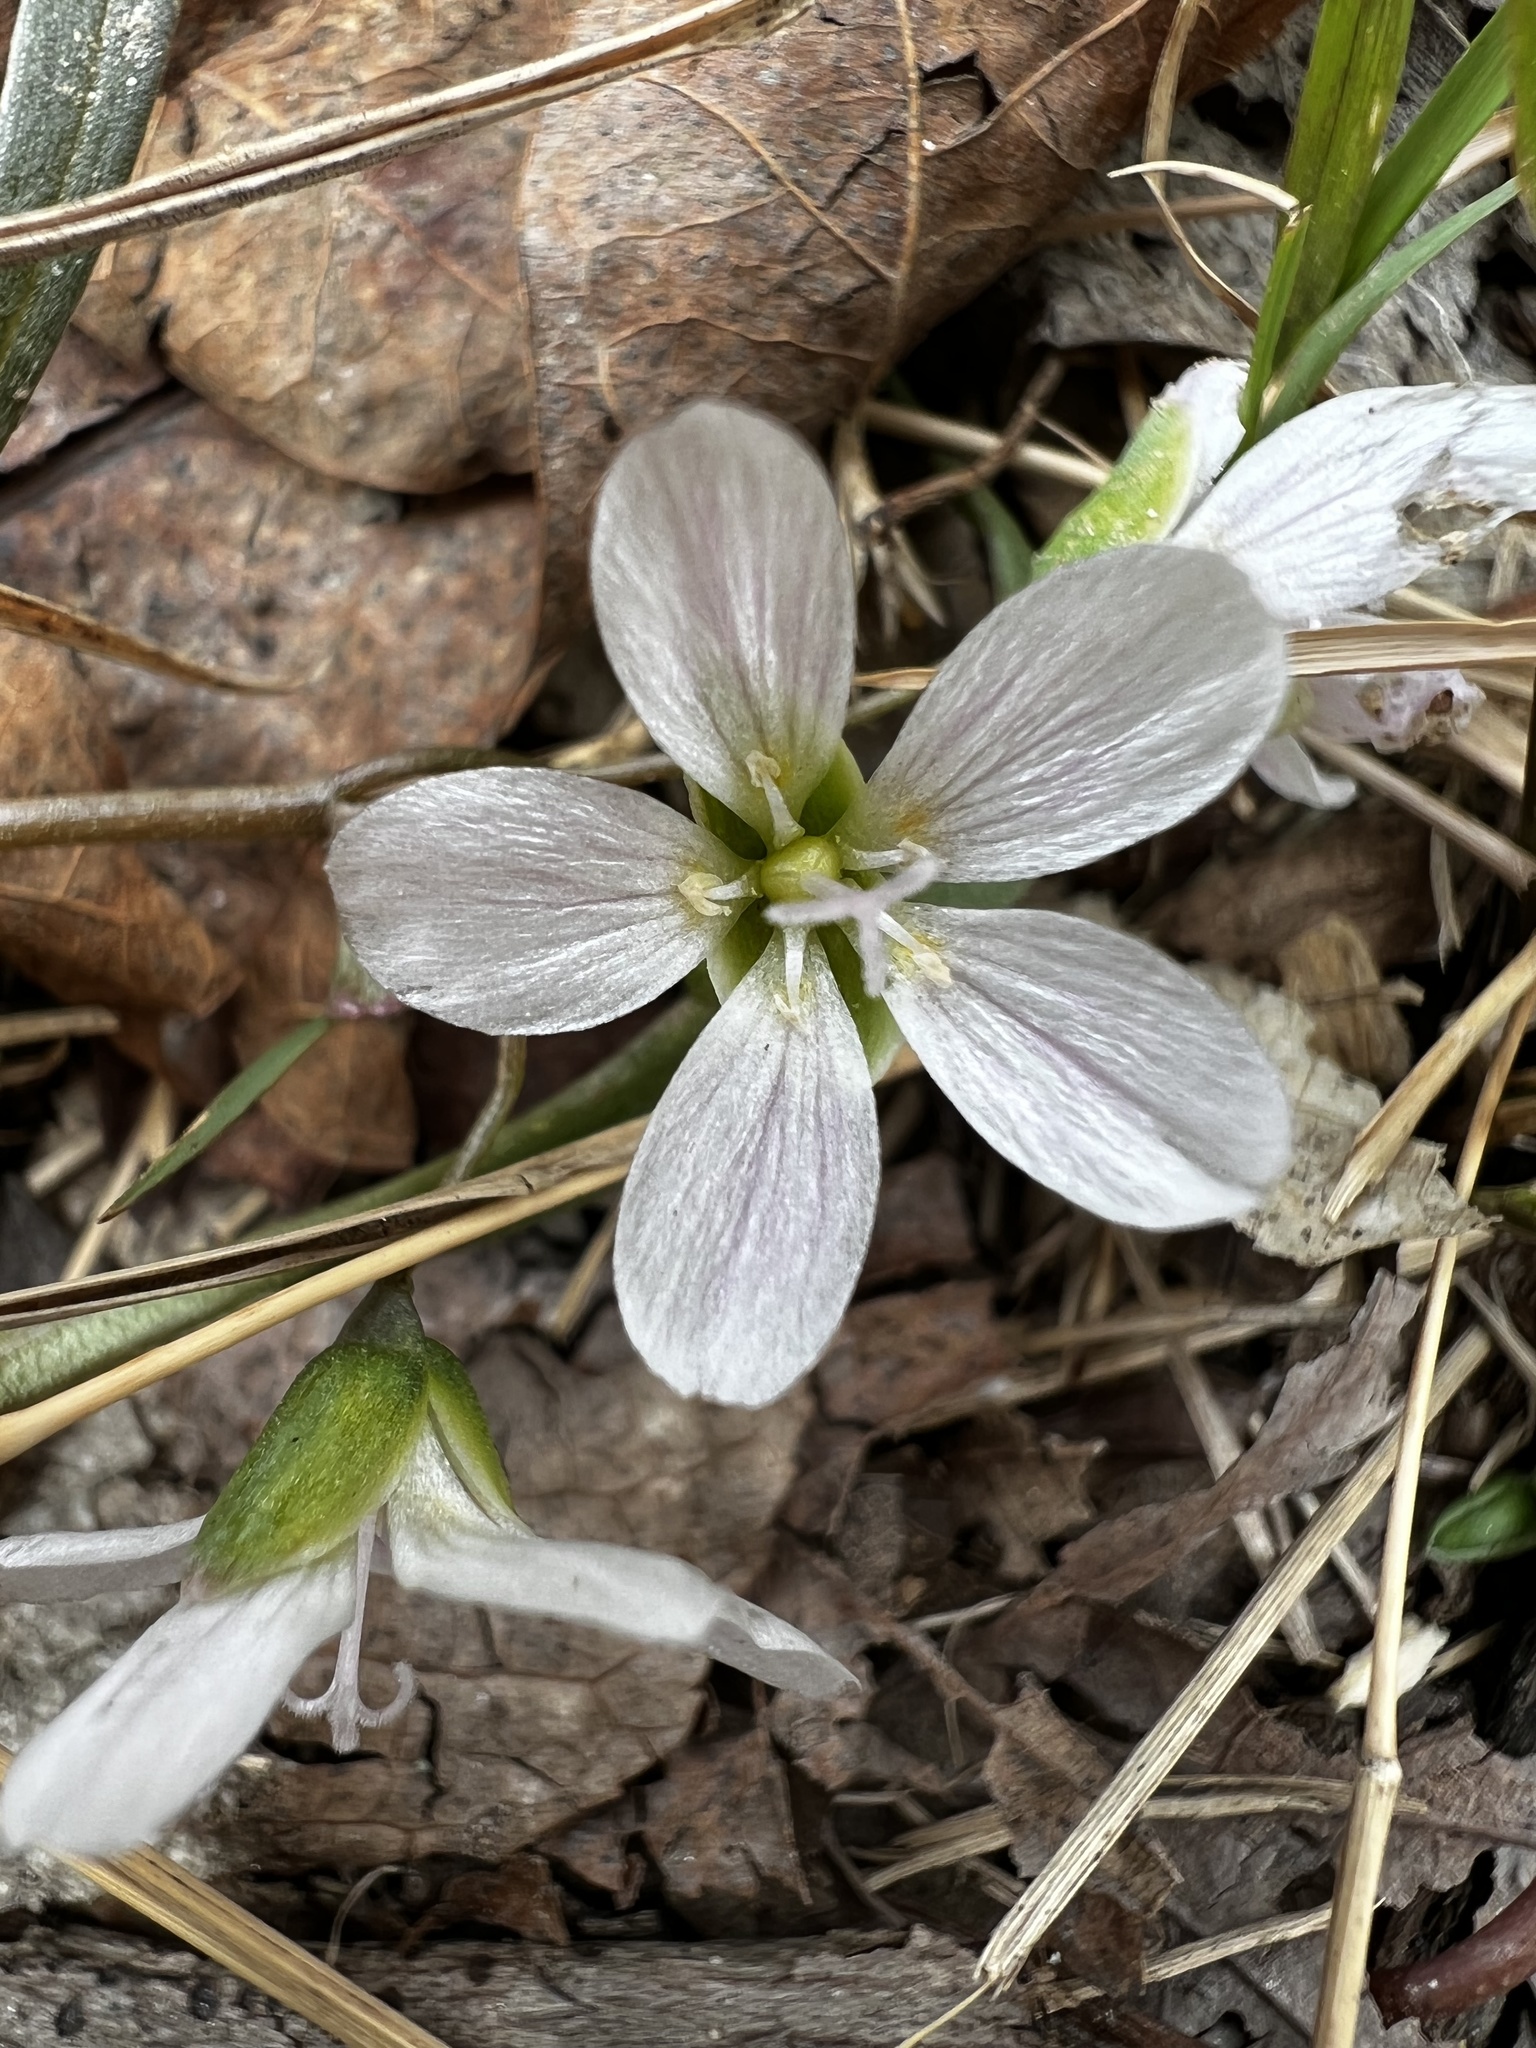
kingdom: Plantae
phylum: Tracheophyta
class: Magnoliopsida
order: Caryophyllales
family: Montiaceae
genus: Claytonia
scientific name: Claytonia virginica
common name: Virginia springbeauty
